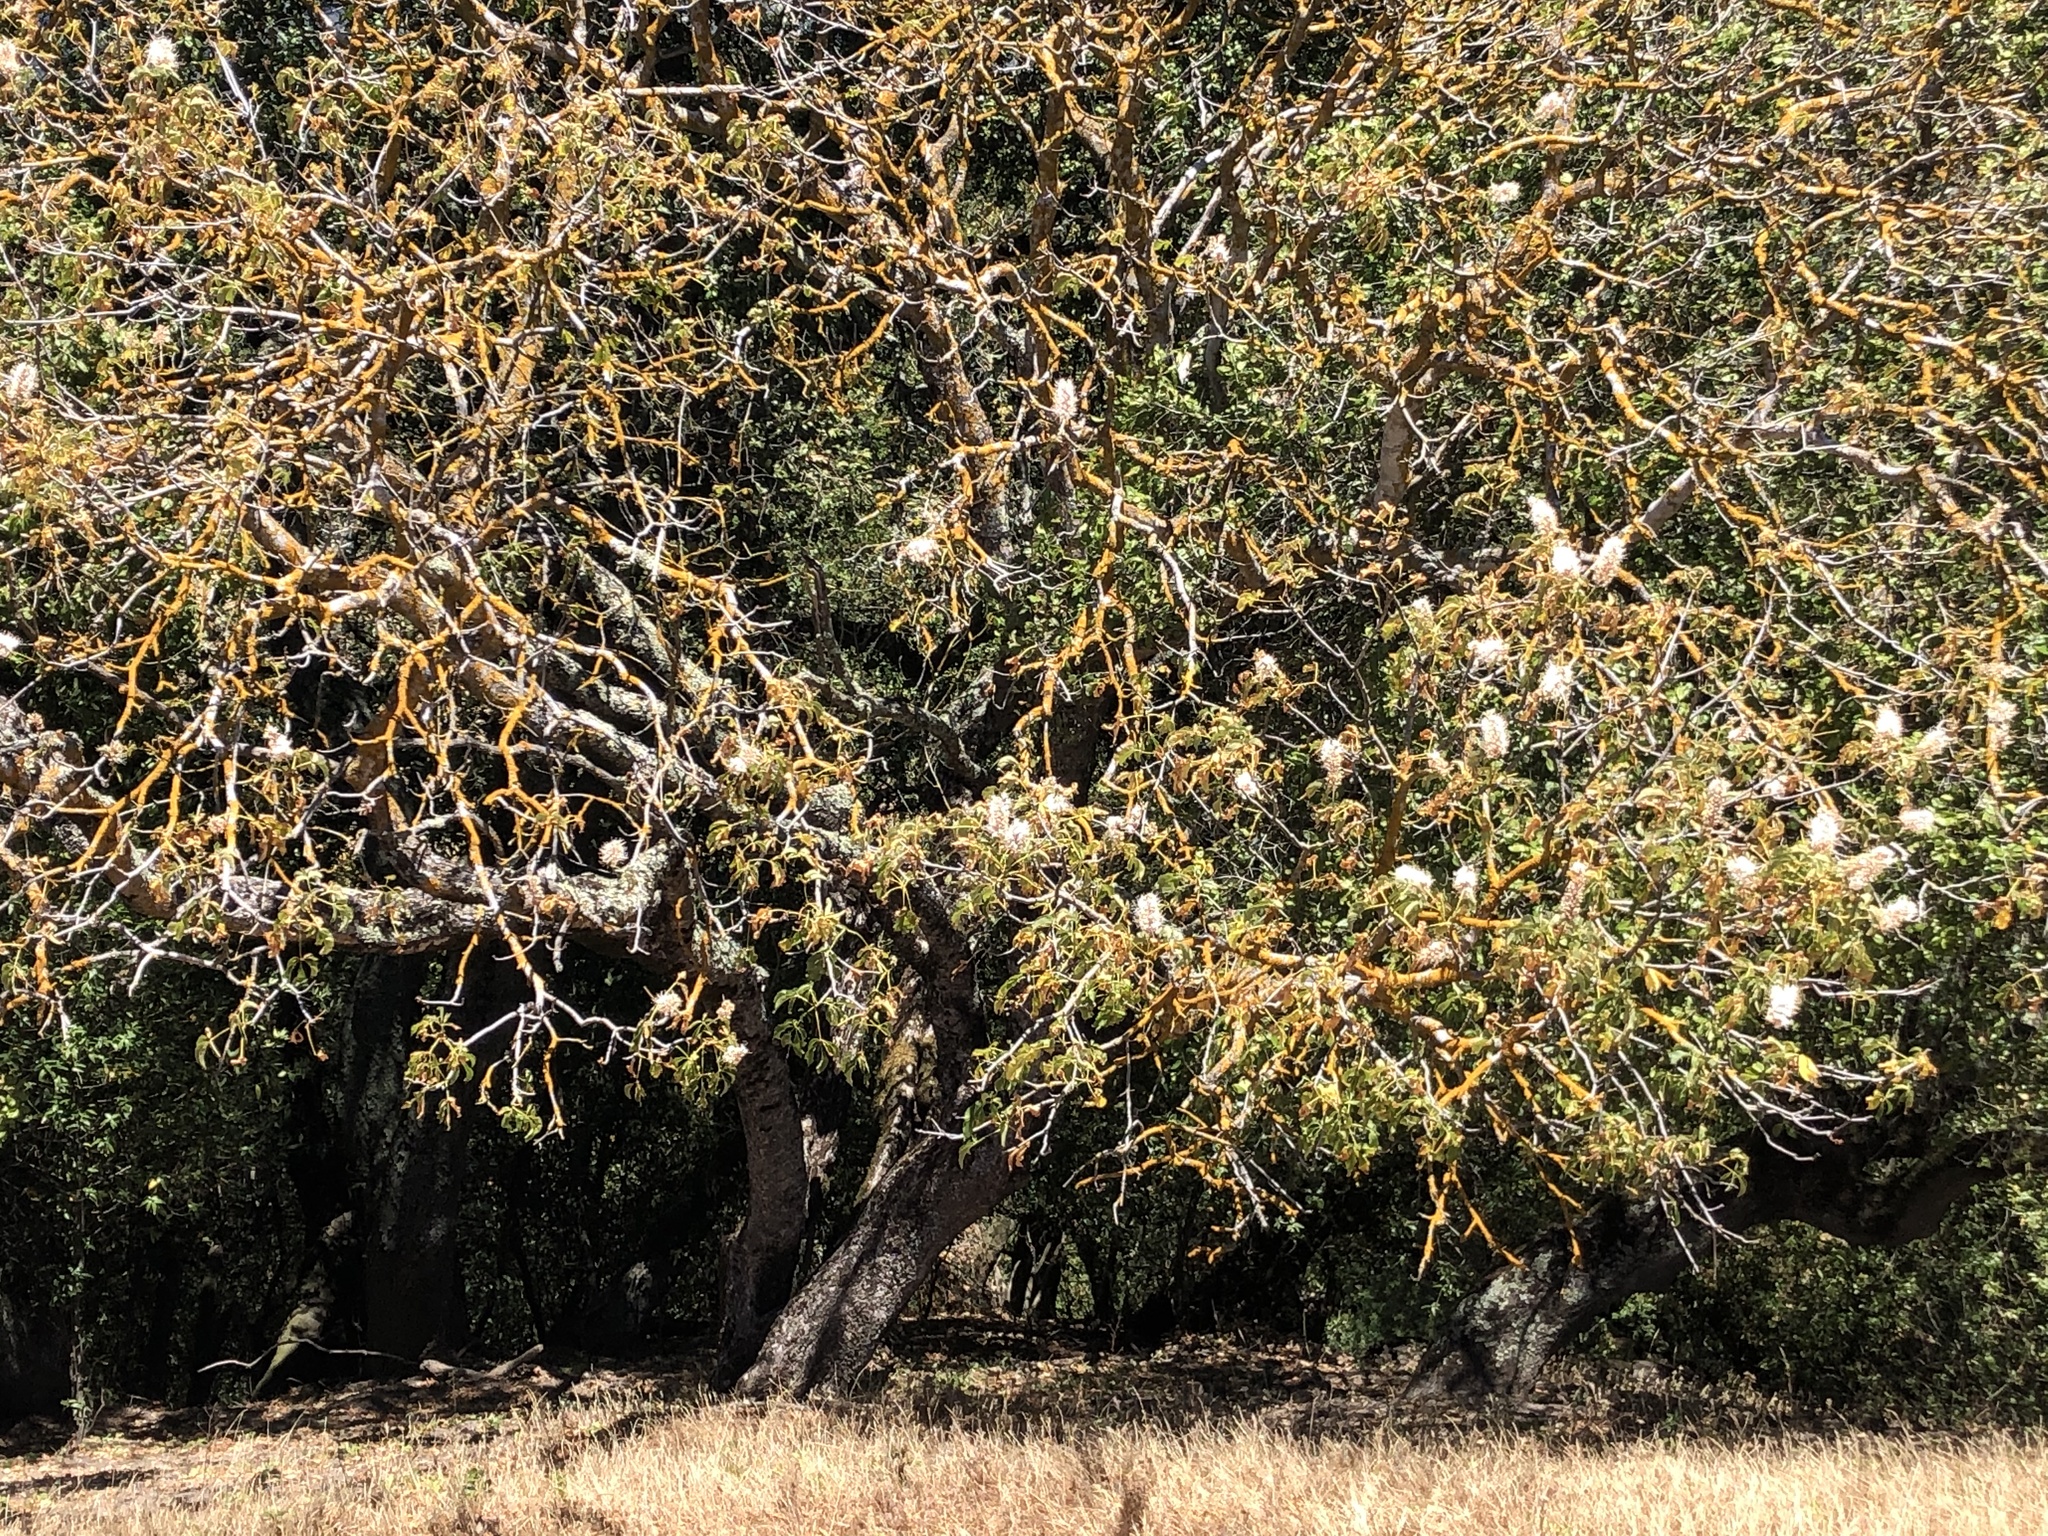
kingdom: Plantae
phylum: Tracheophyta
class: Magnoliopsida
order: Sapindales
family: Sapindaceae
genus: Aesculus
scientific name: Aesculus californica
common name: California buckeye
